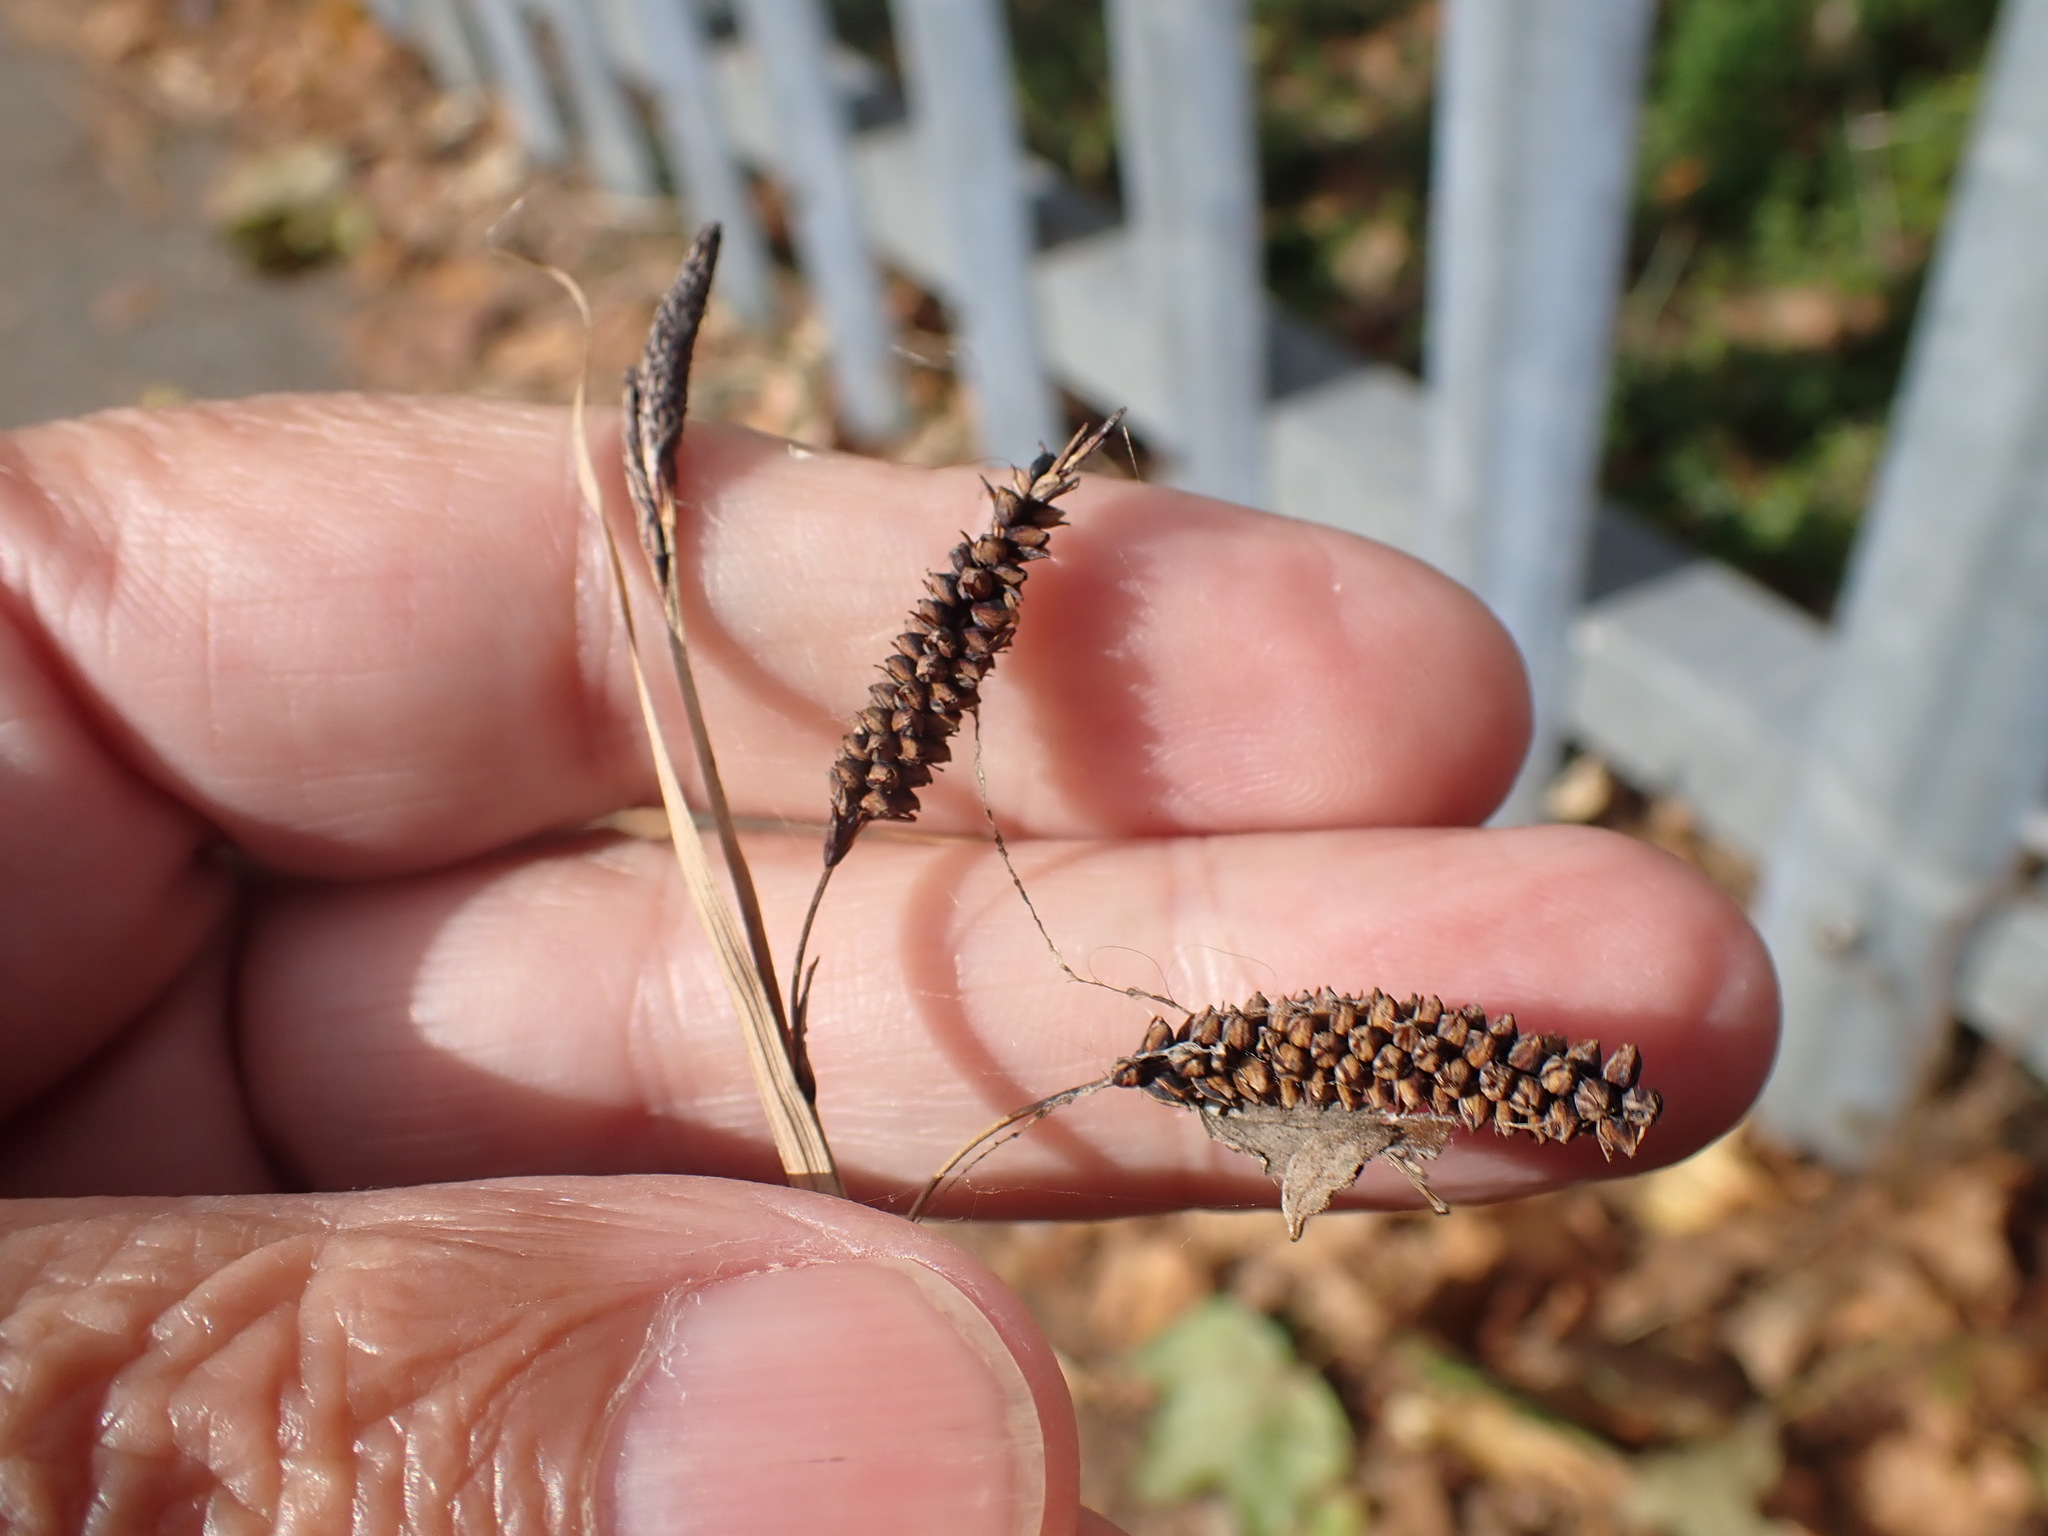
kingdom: Plantae
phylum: Tracheophyta
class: Liliopsida
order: Poales
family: Cyperaceae
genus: Carex
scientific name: Carex flacca
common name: Glaucous sedge
